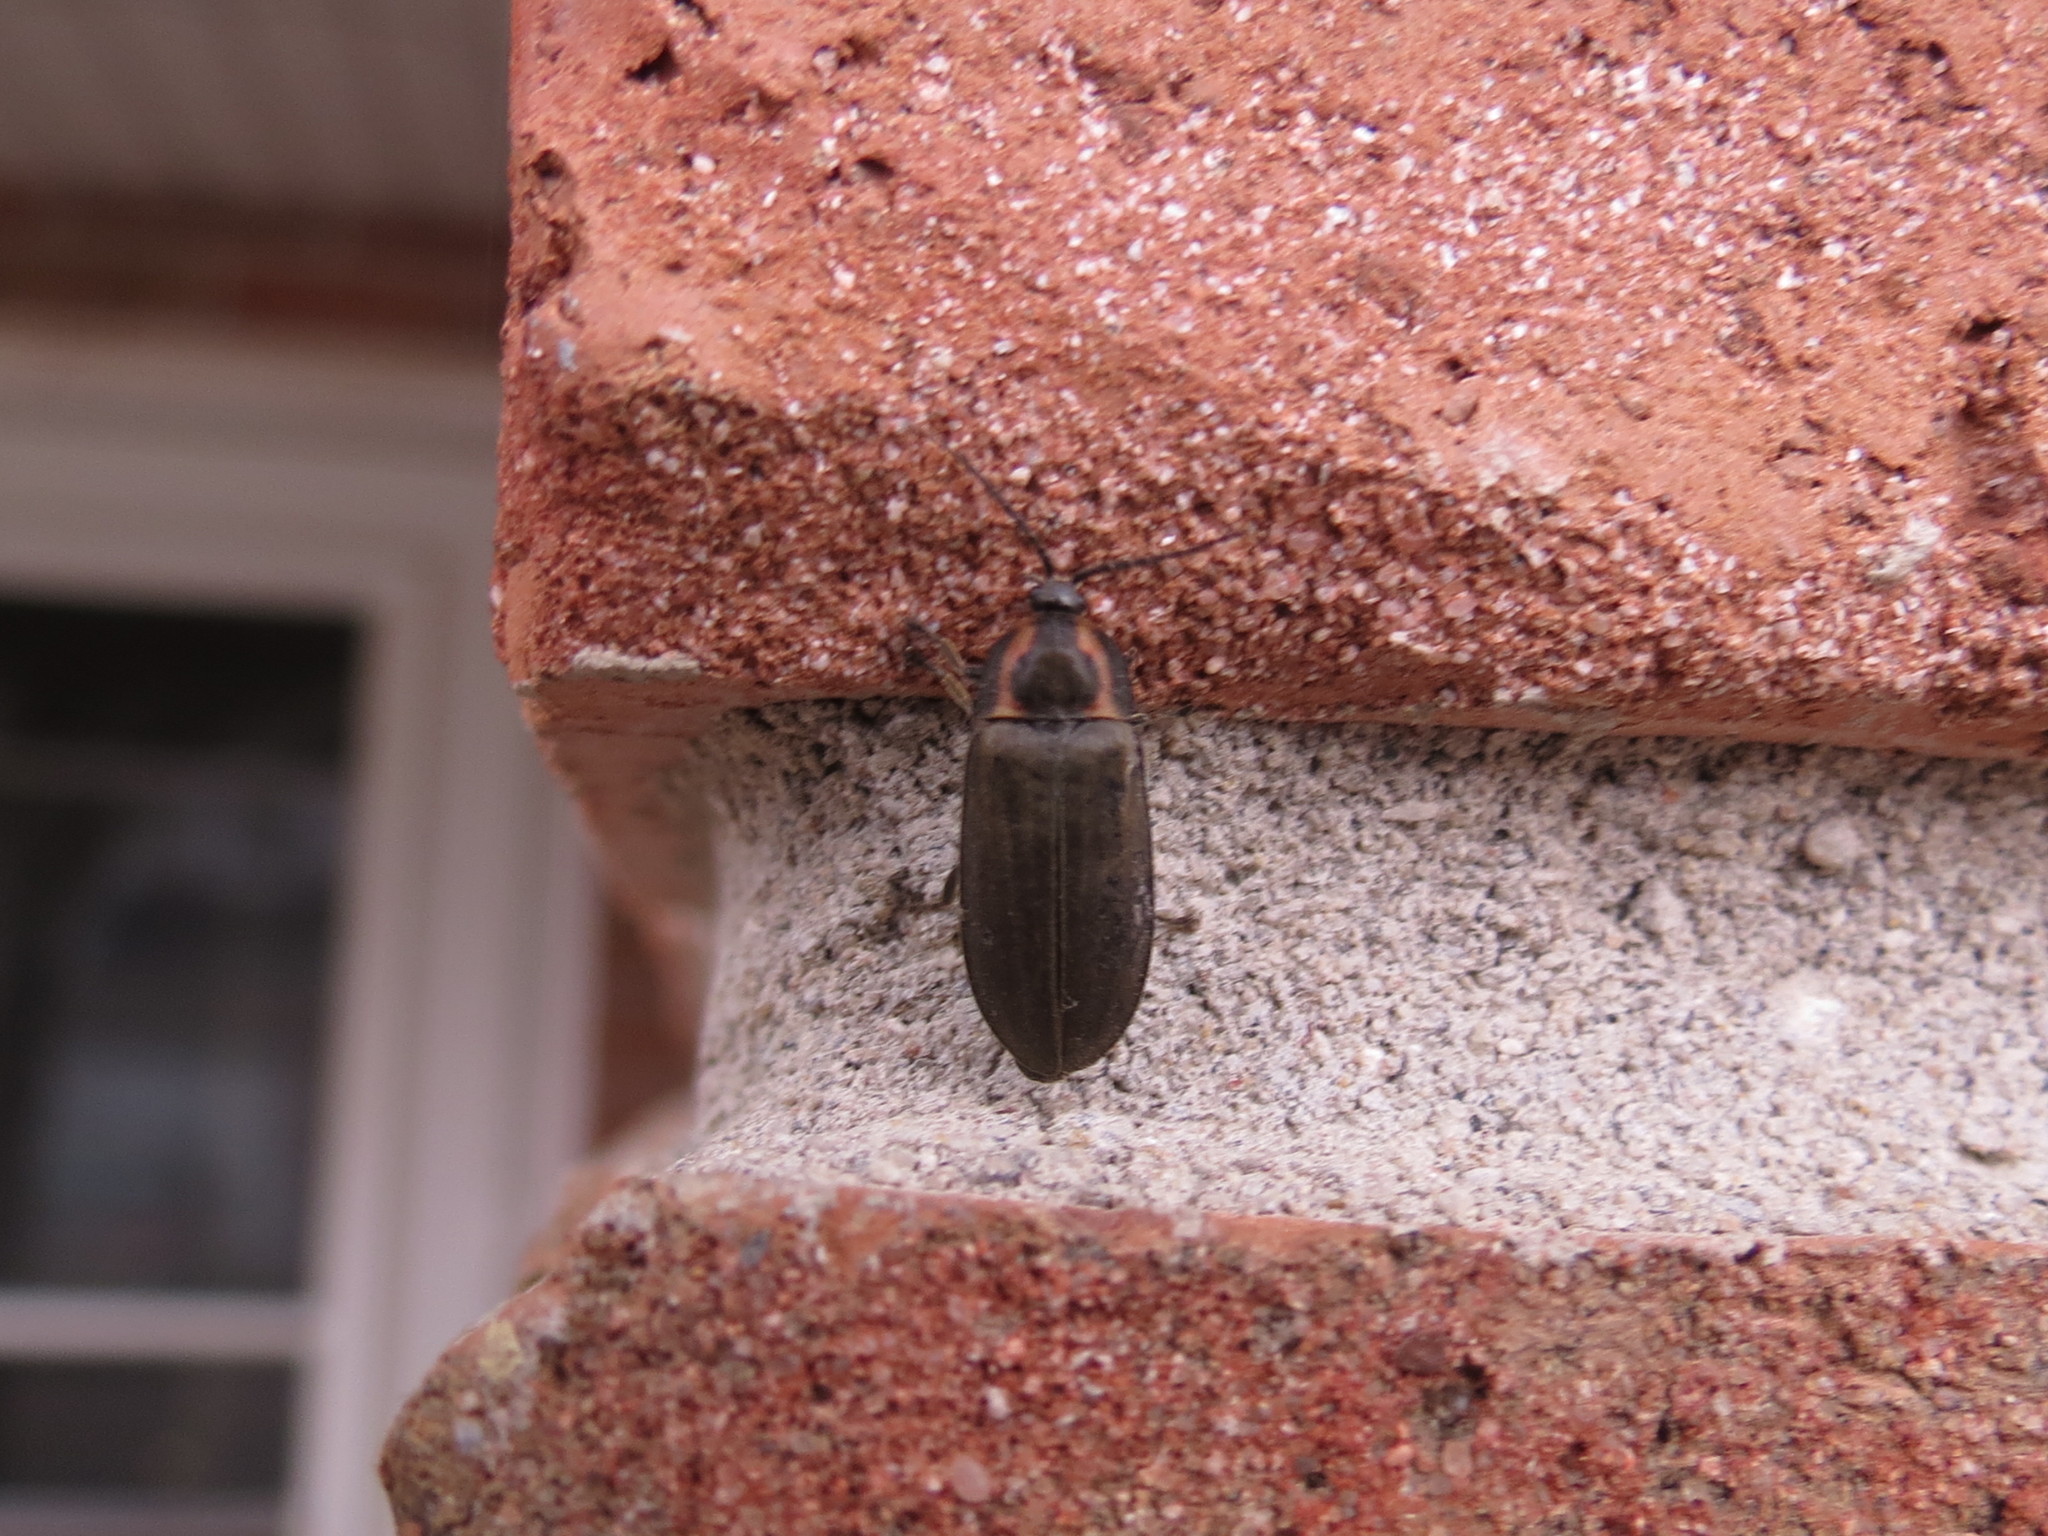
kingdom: Animalia
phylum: Arthropoda
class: Insecta
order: Coleoptera
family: Lampyridae
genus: Photinus
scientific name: Photinus corrusca
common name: Winter firefly
